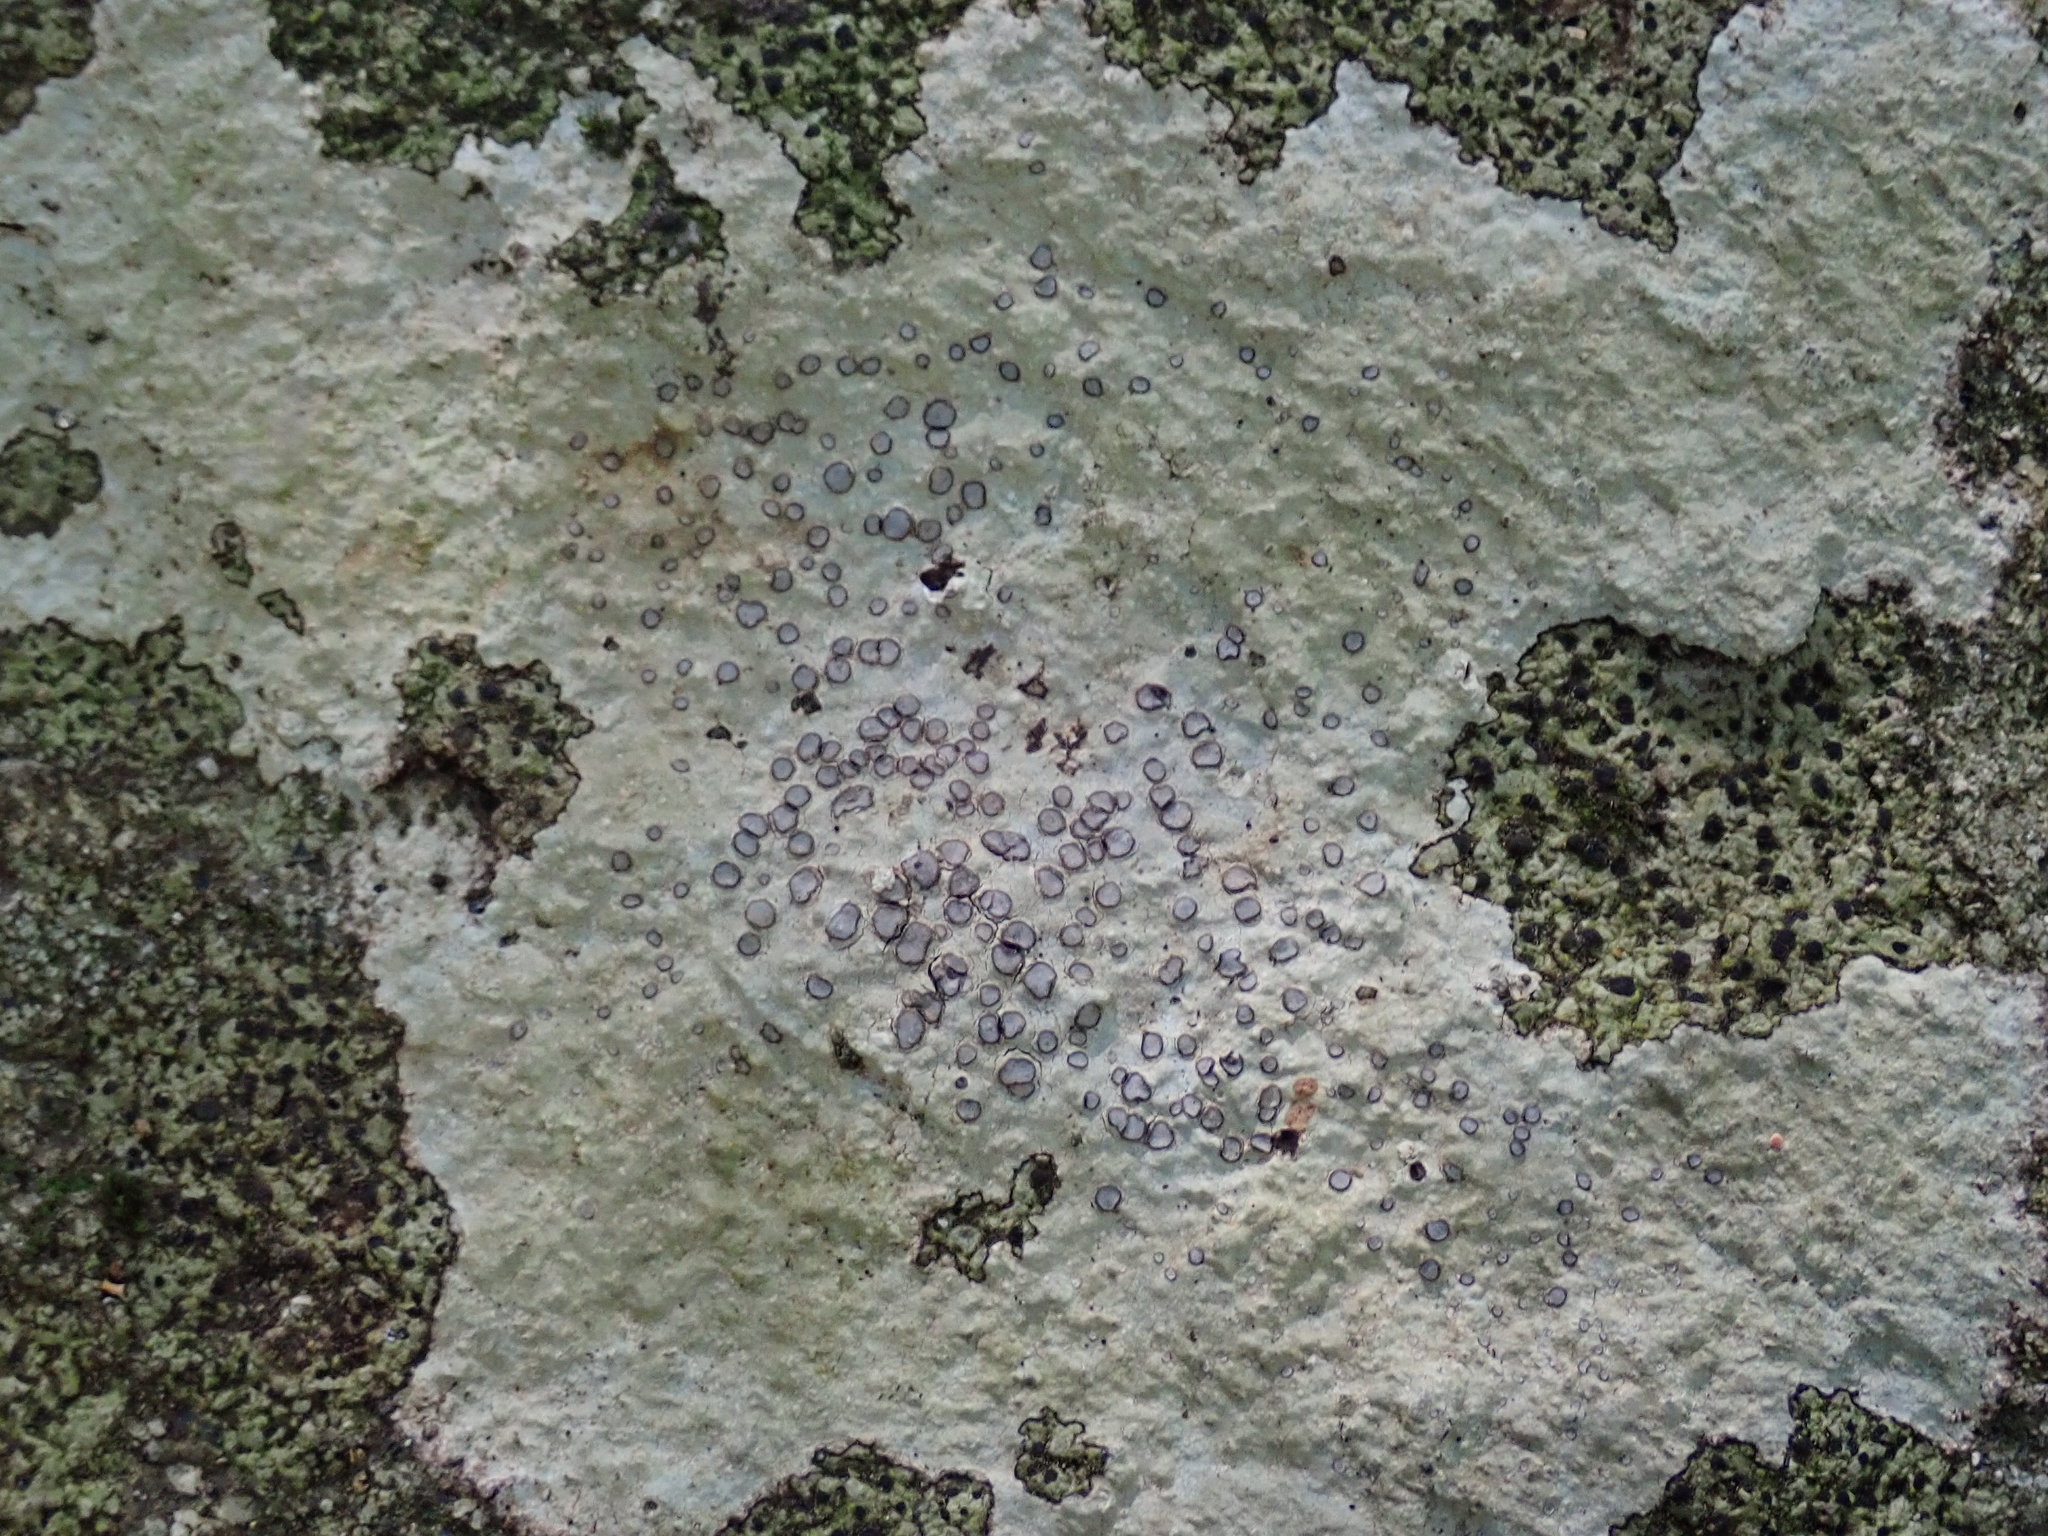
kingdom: Fungi
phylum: Ascomycota
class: Lecanoromycetes
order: Lecideales
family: Lecideaceae
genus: Porpidia
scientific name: Porpidia albocaerulescens
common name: Smokey-eyed boulder lichen
